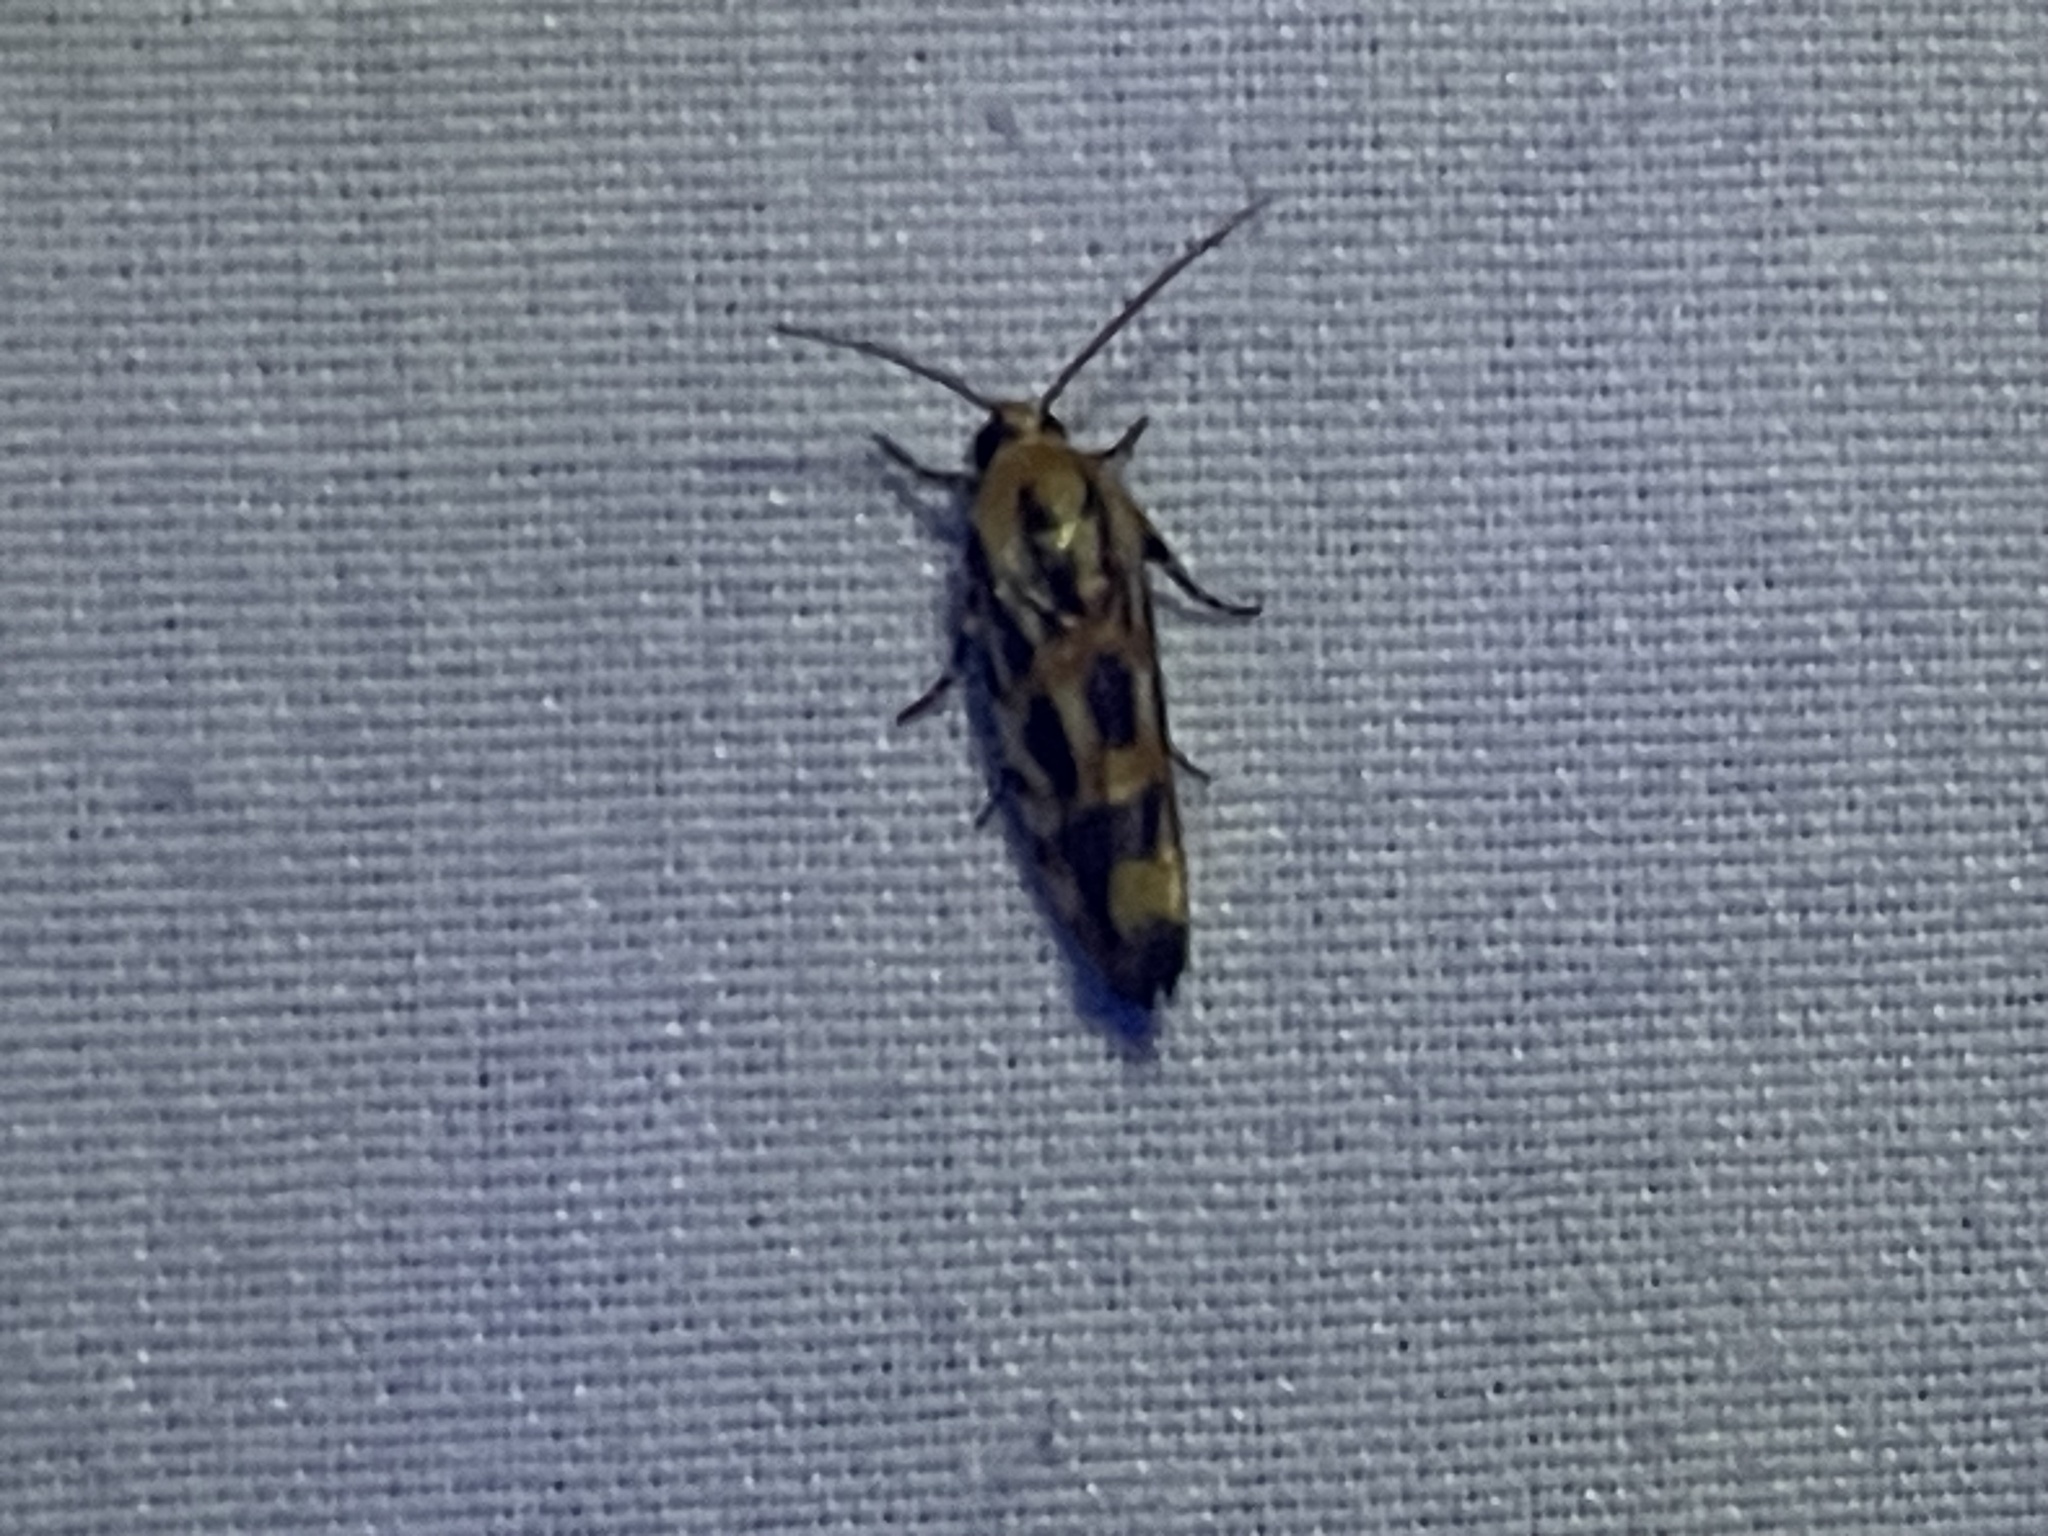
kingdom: Animalia
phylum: Arthropoda
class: Insecta
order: Lepidoptera
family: Noctuidae
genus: Acontia
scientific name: Acontia leo
